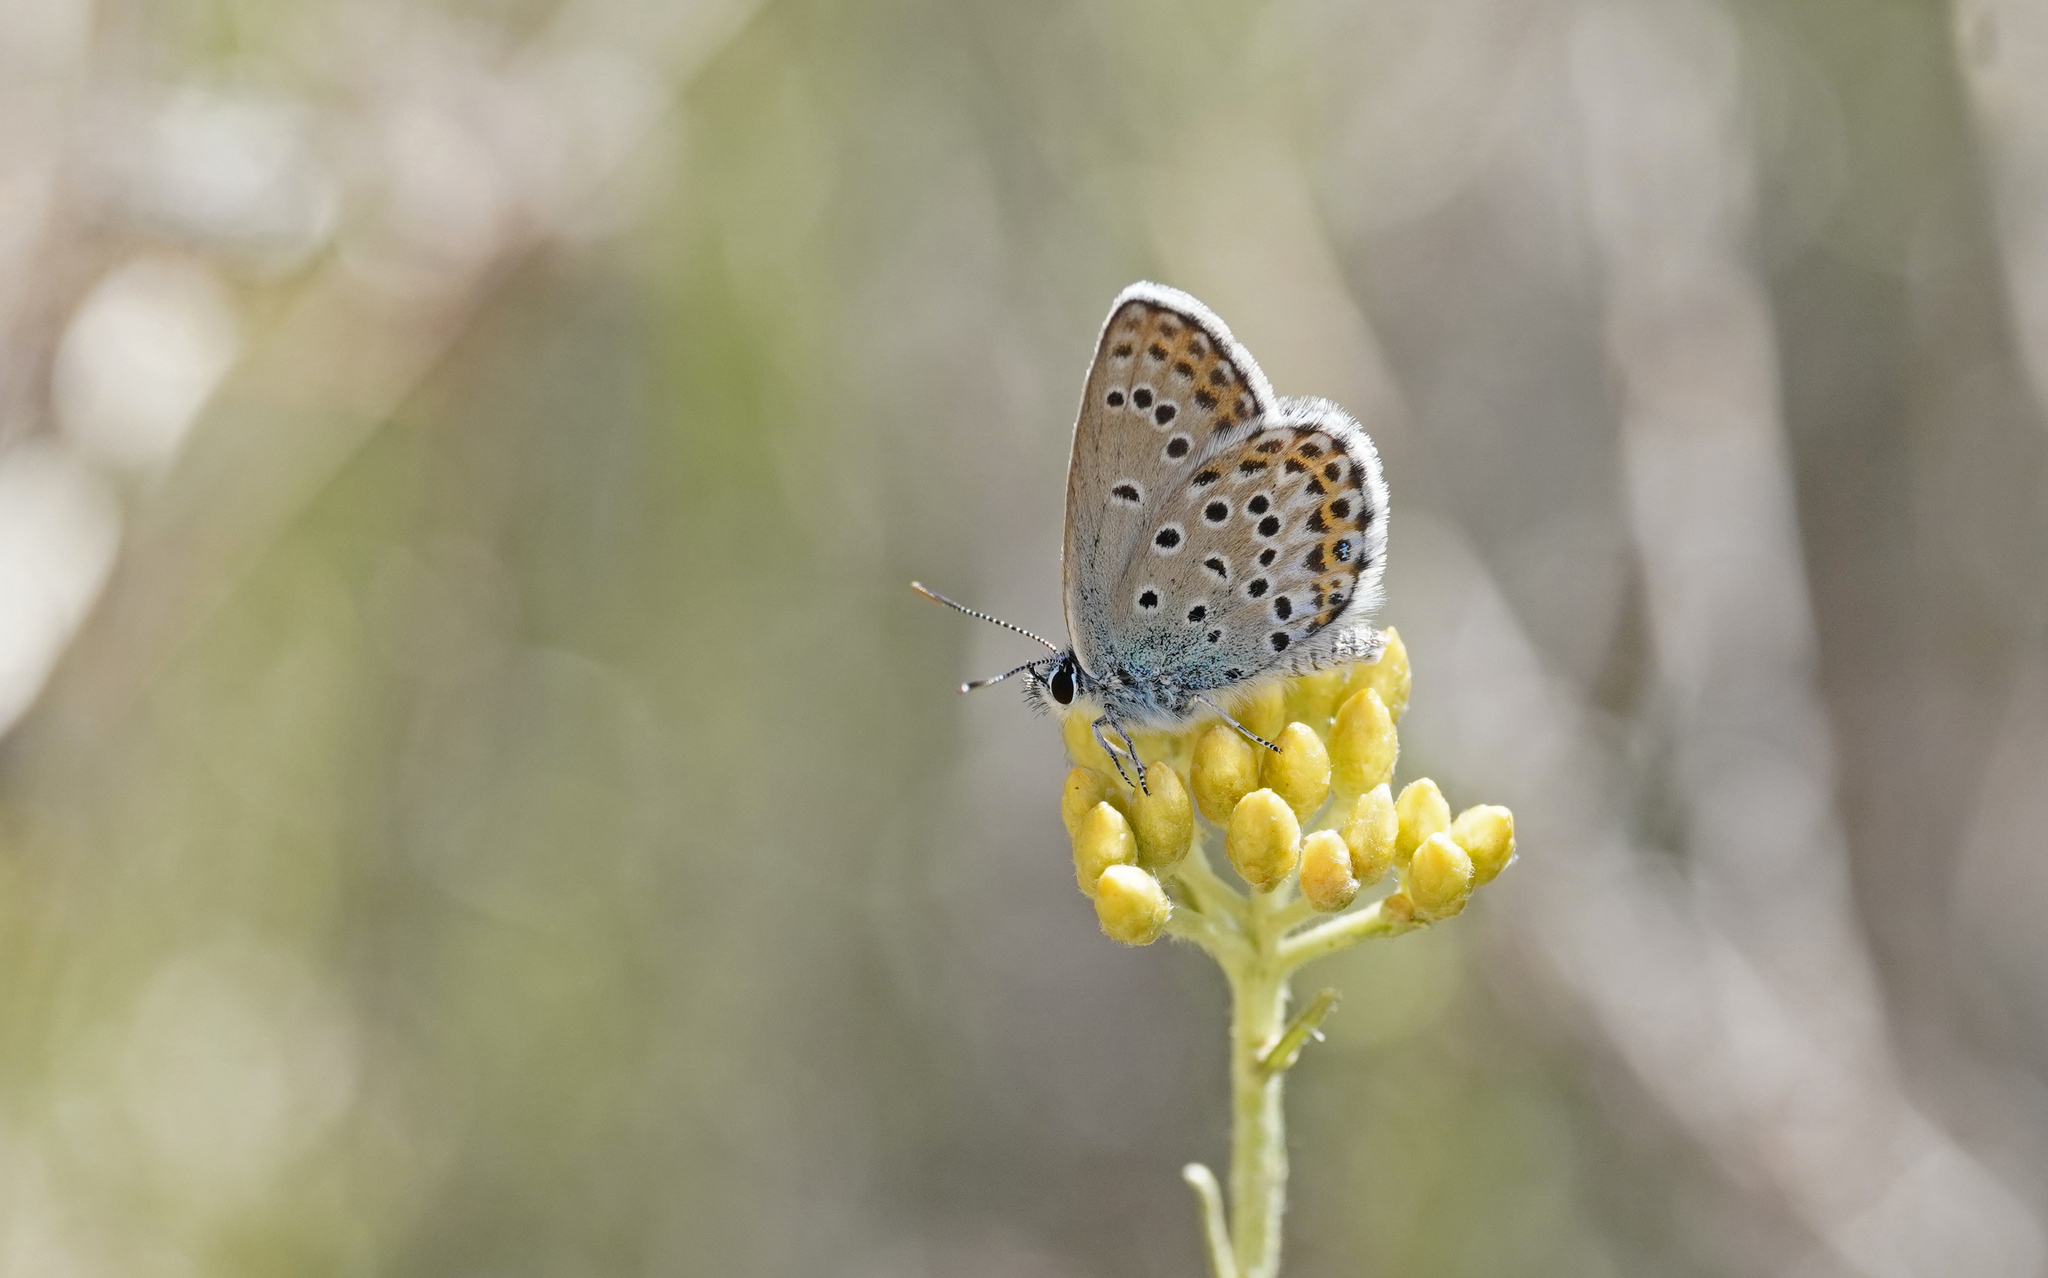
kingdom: Animalia
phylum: Arthropoda
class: Insecta
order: Lepidoptera
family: Lycaenidae
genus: Lycaeides
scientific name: Lycaeides idas
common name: Northern blue
